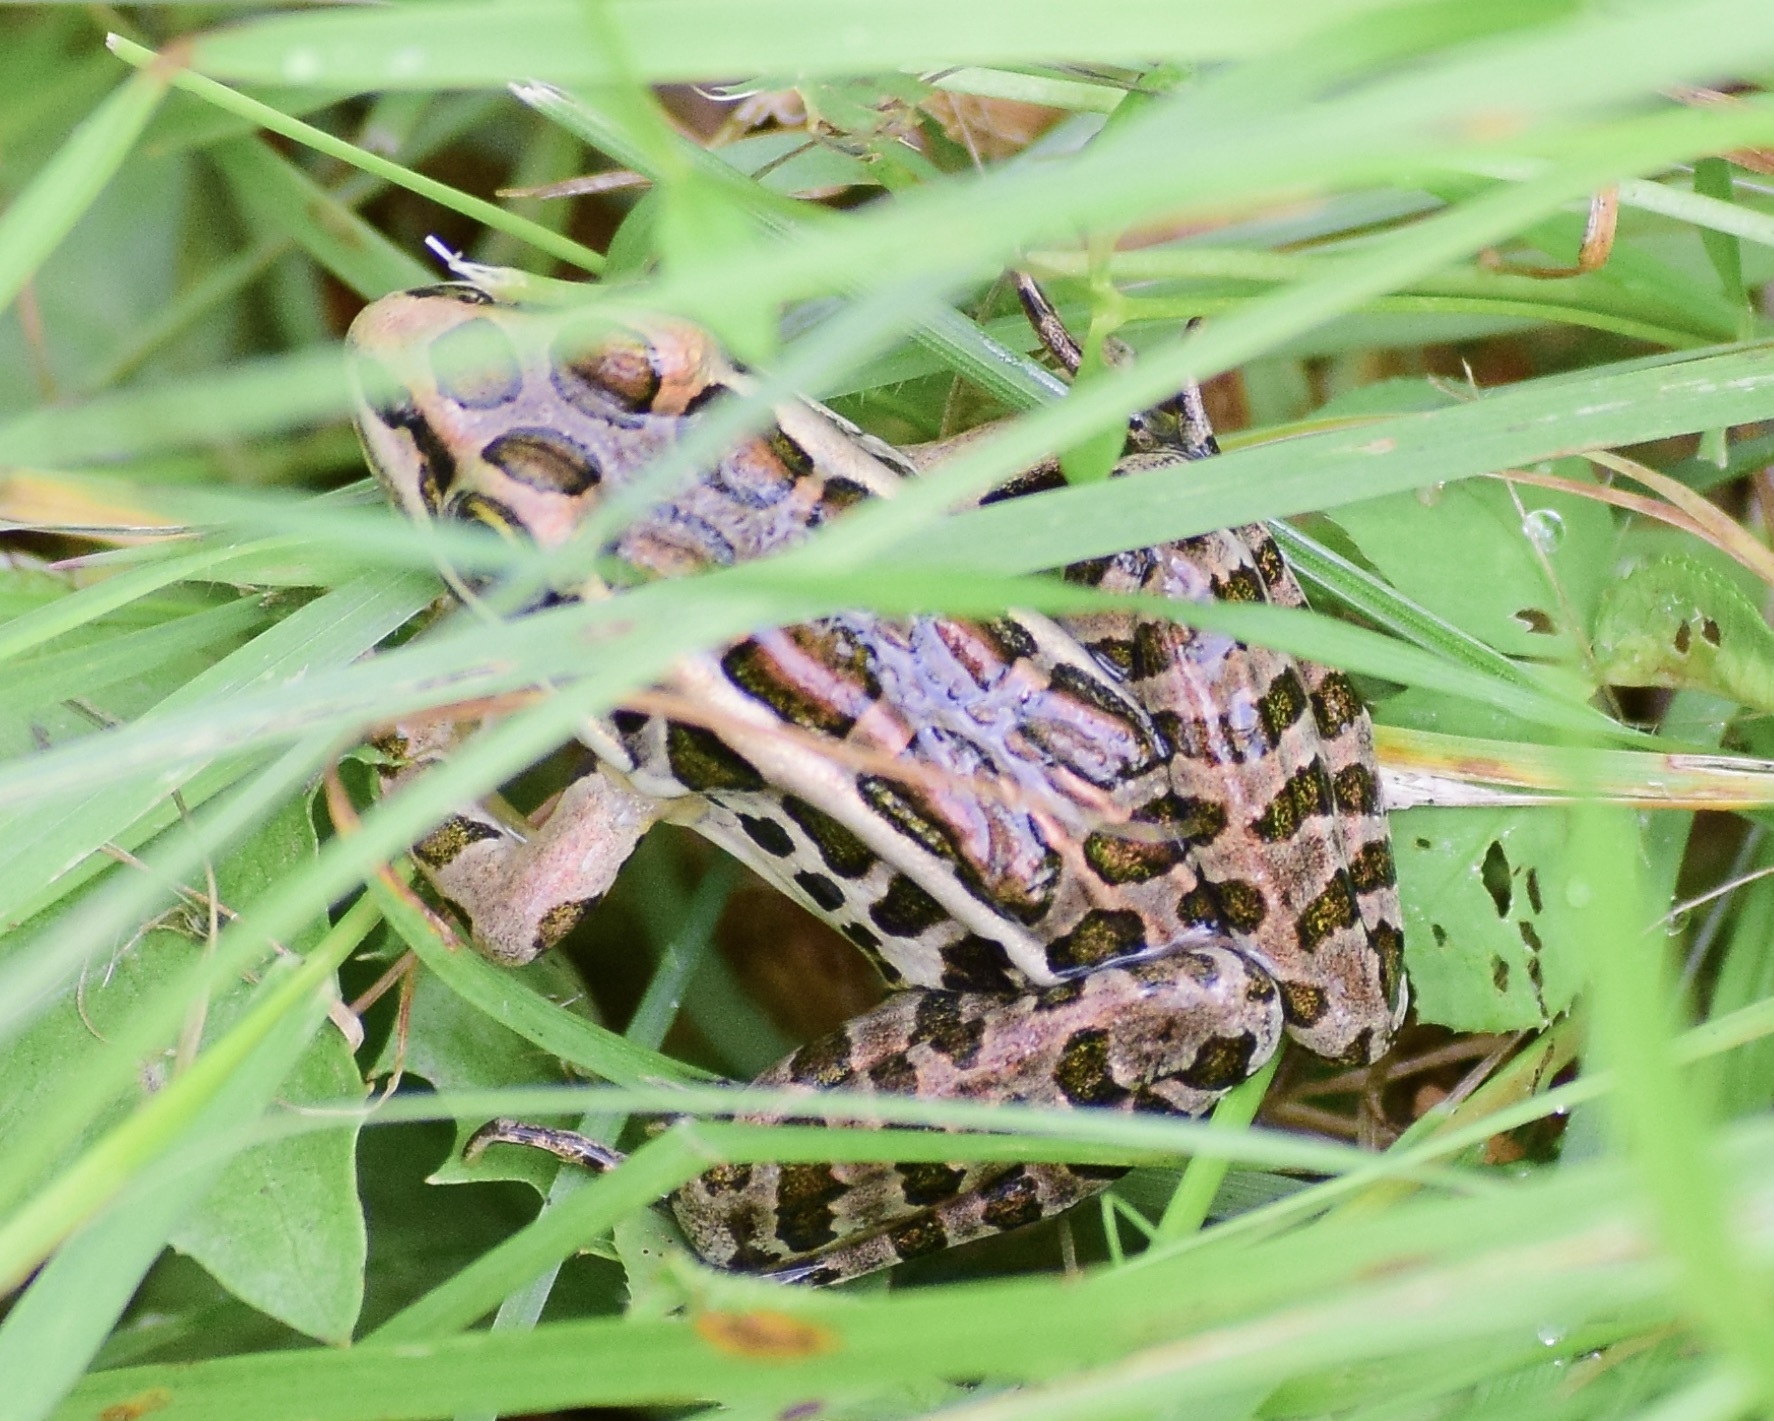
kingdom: Animalia
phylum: Chordata
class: Amphibia
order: Anura
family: Ranidae
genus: Lithobates
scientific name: Lithobates palustris
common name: Pickerel frog
